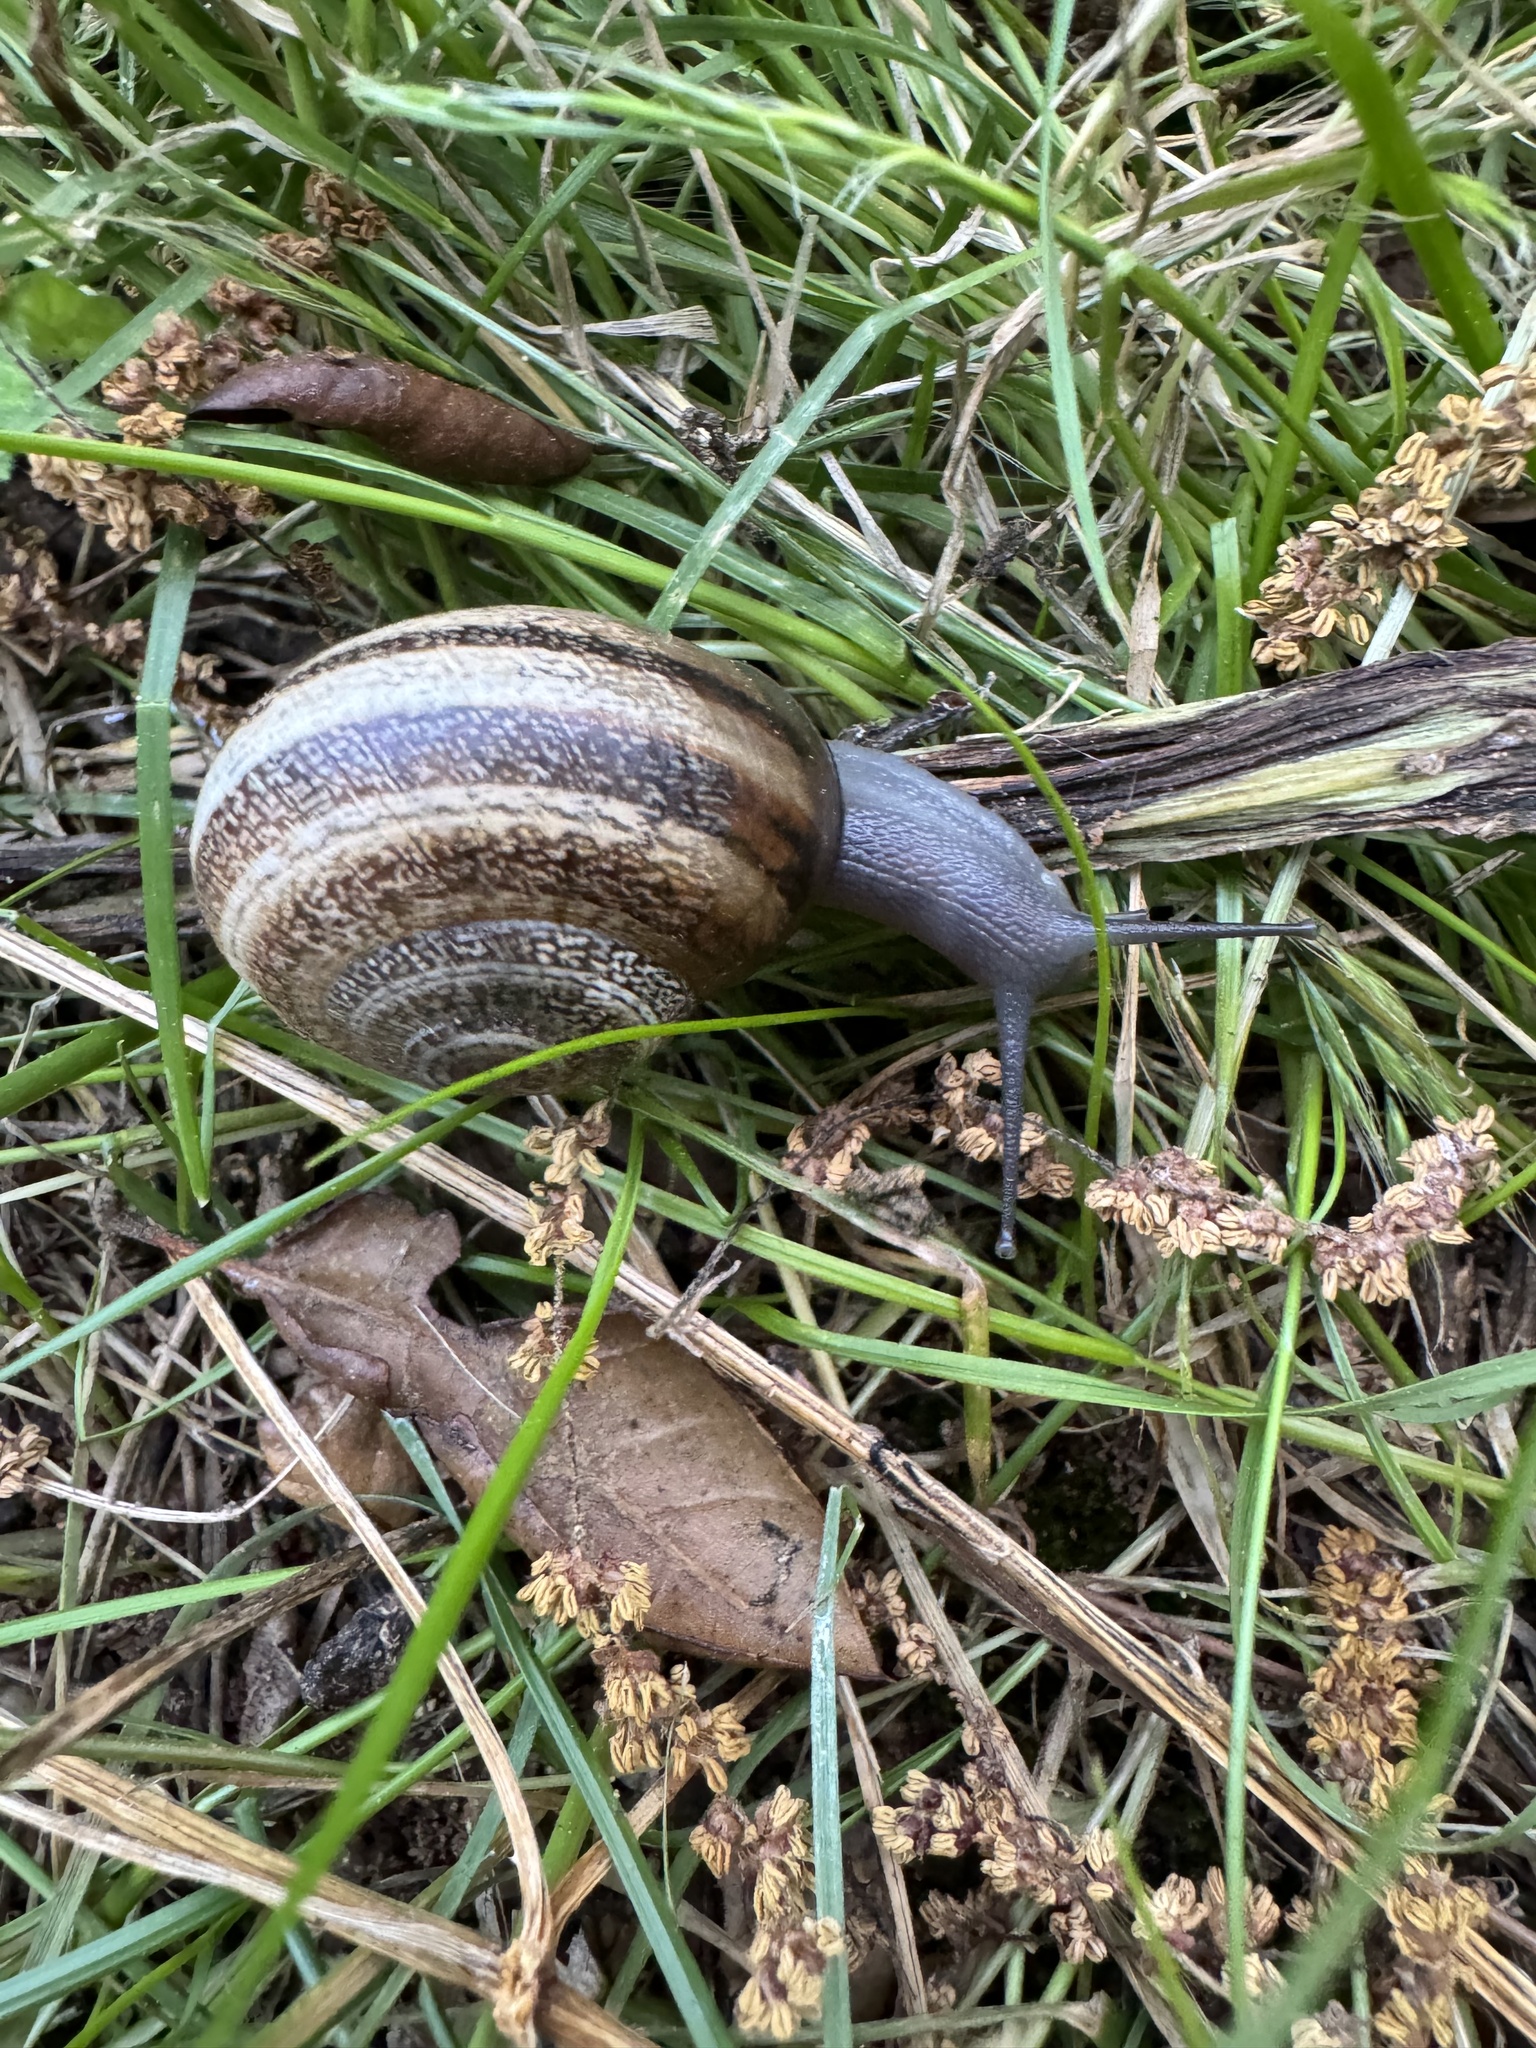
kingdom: Animalia
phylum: Mollusca
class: Gastropoda
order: Stylommatophora
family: Helicidae
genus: Otala
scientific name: Otala lactea
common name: Milk snail
